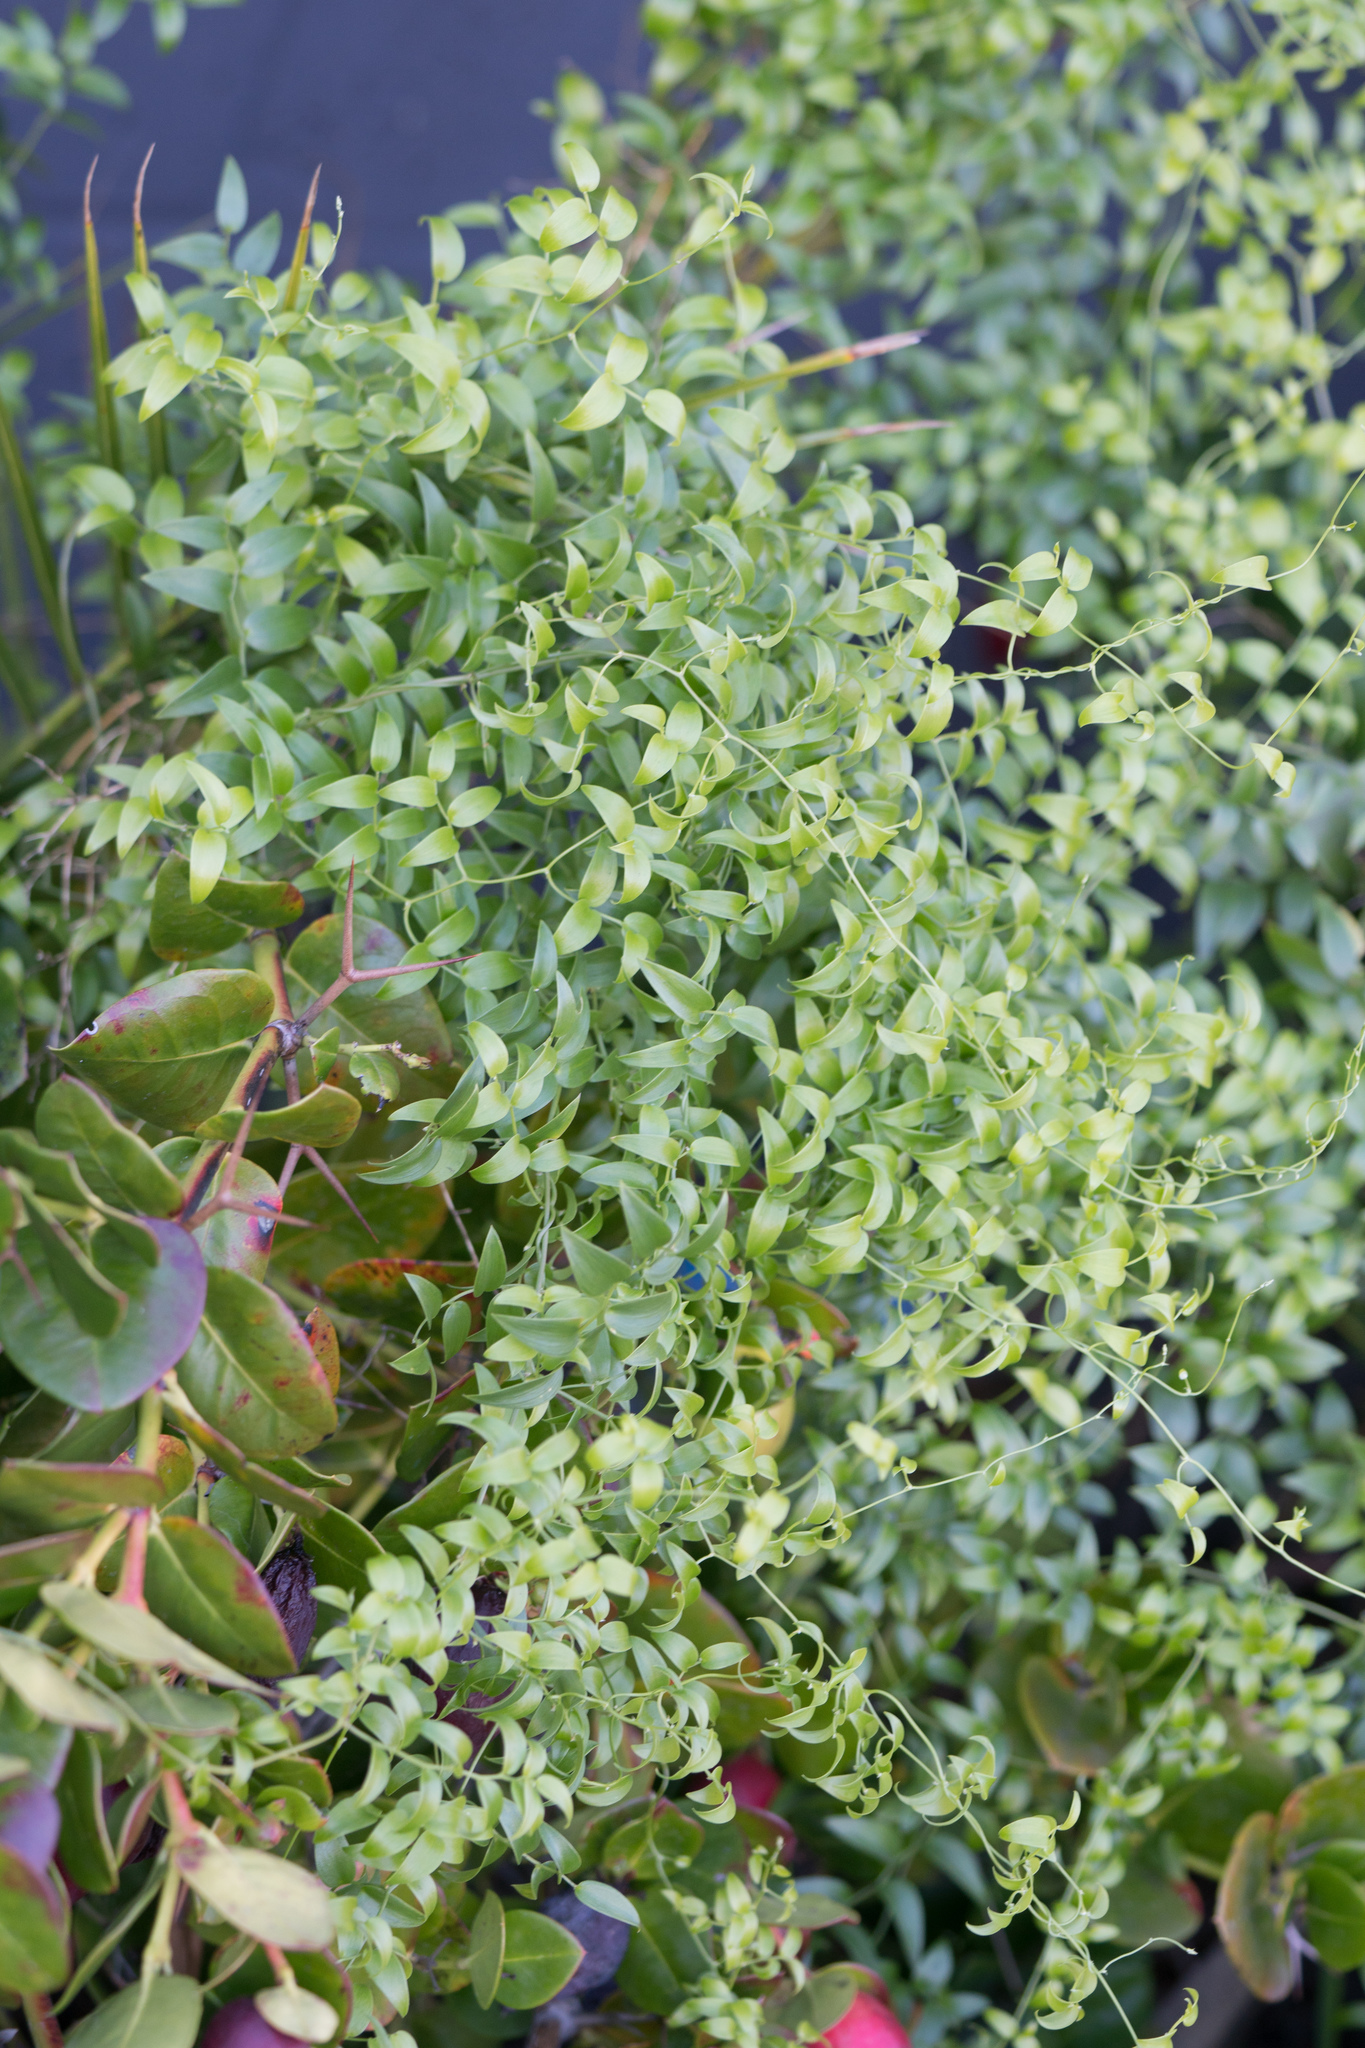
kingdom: Plantae
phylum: Tracheophyta
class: Liliopsida
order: Asparagales
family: Asparagaceae
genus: Asparagus
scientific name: Asparagus asparagoides
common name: African asparagus fern
